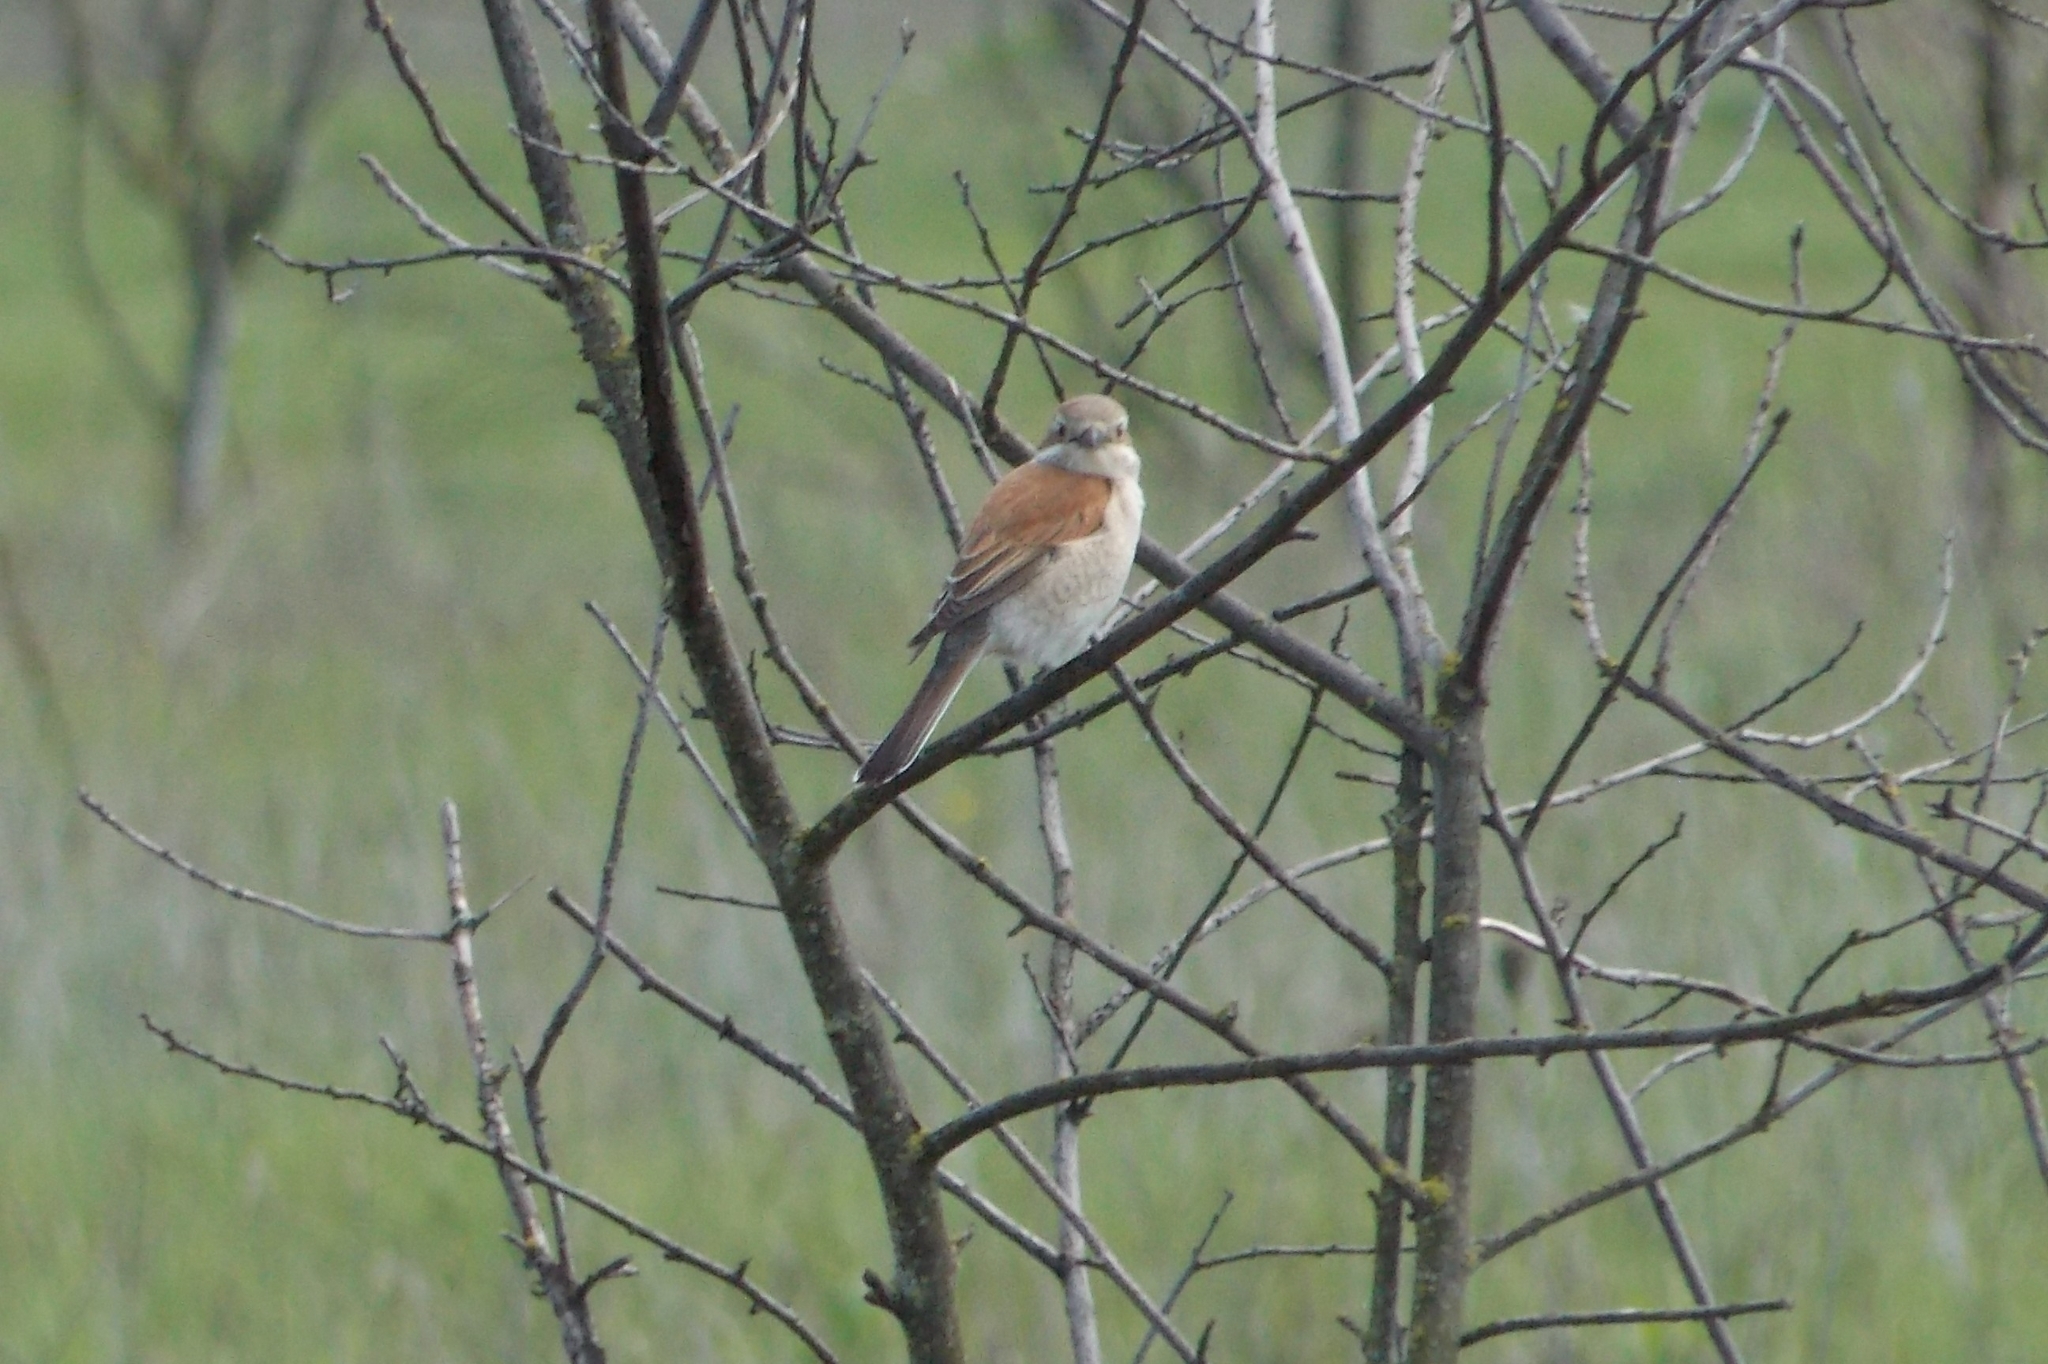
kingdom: Animalia
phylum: Chordata
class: Aves
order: Passeriformes
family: Laniidae
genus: Lanius
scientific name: Lanius collurio
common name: Red-backed shrike
